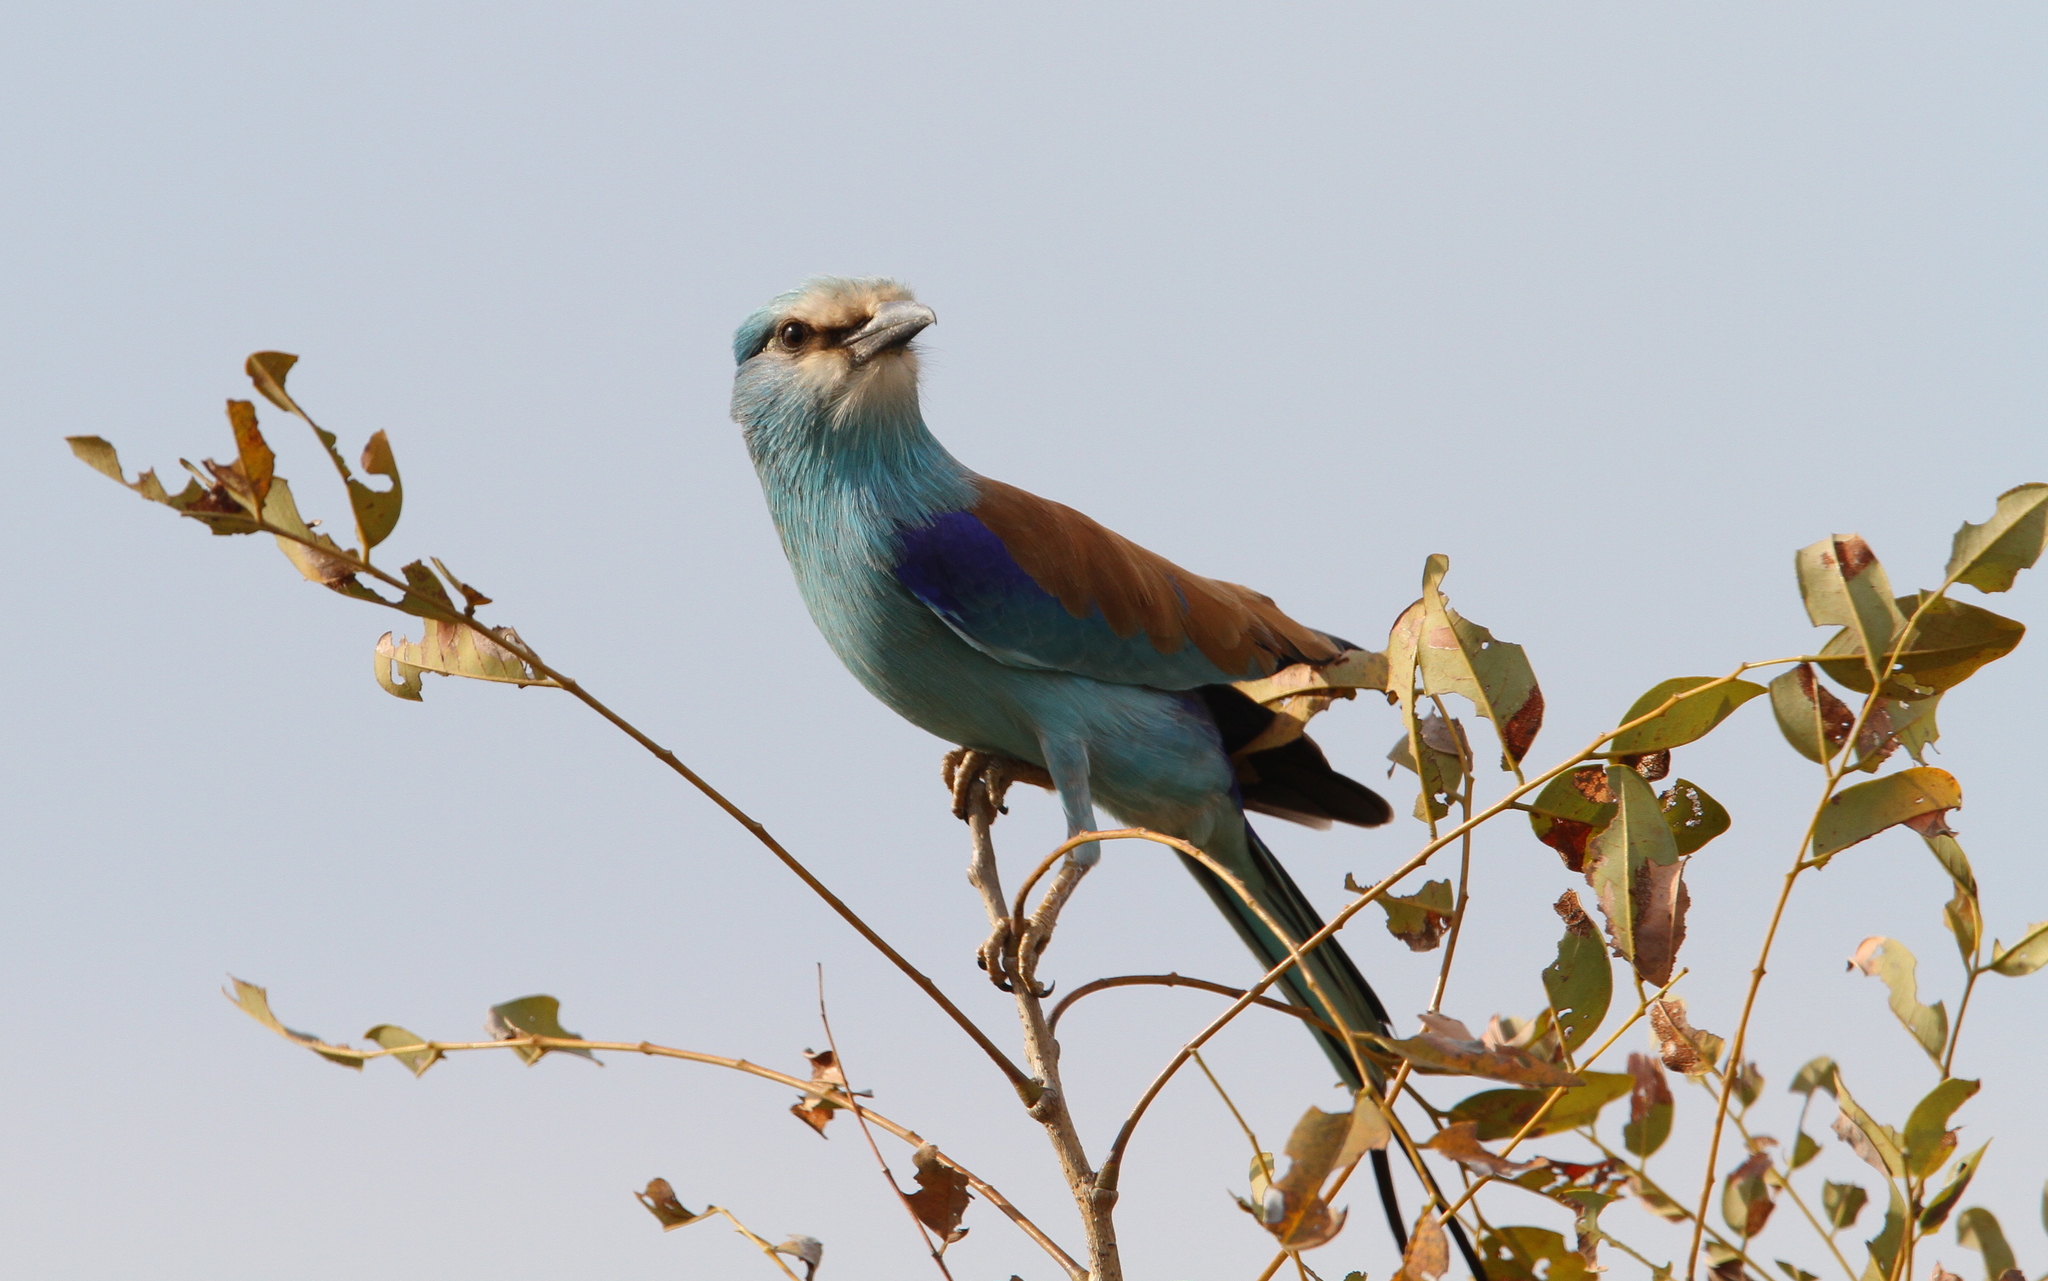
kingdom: Animalia
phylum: Chordata
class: Aves
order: Coraciiformes
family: Coraciidae
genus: Coracias
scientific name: Coracias abyssinicus
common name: Abyssinian roller
